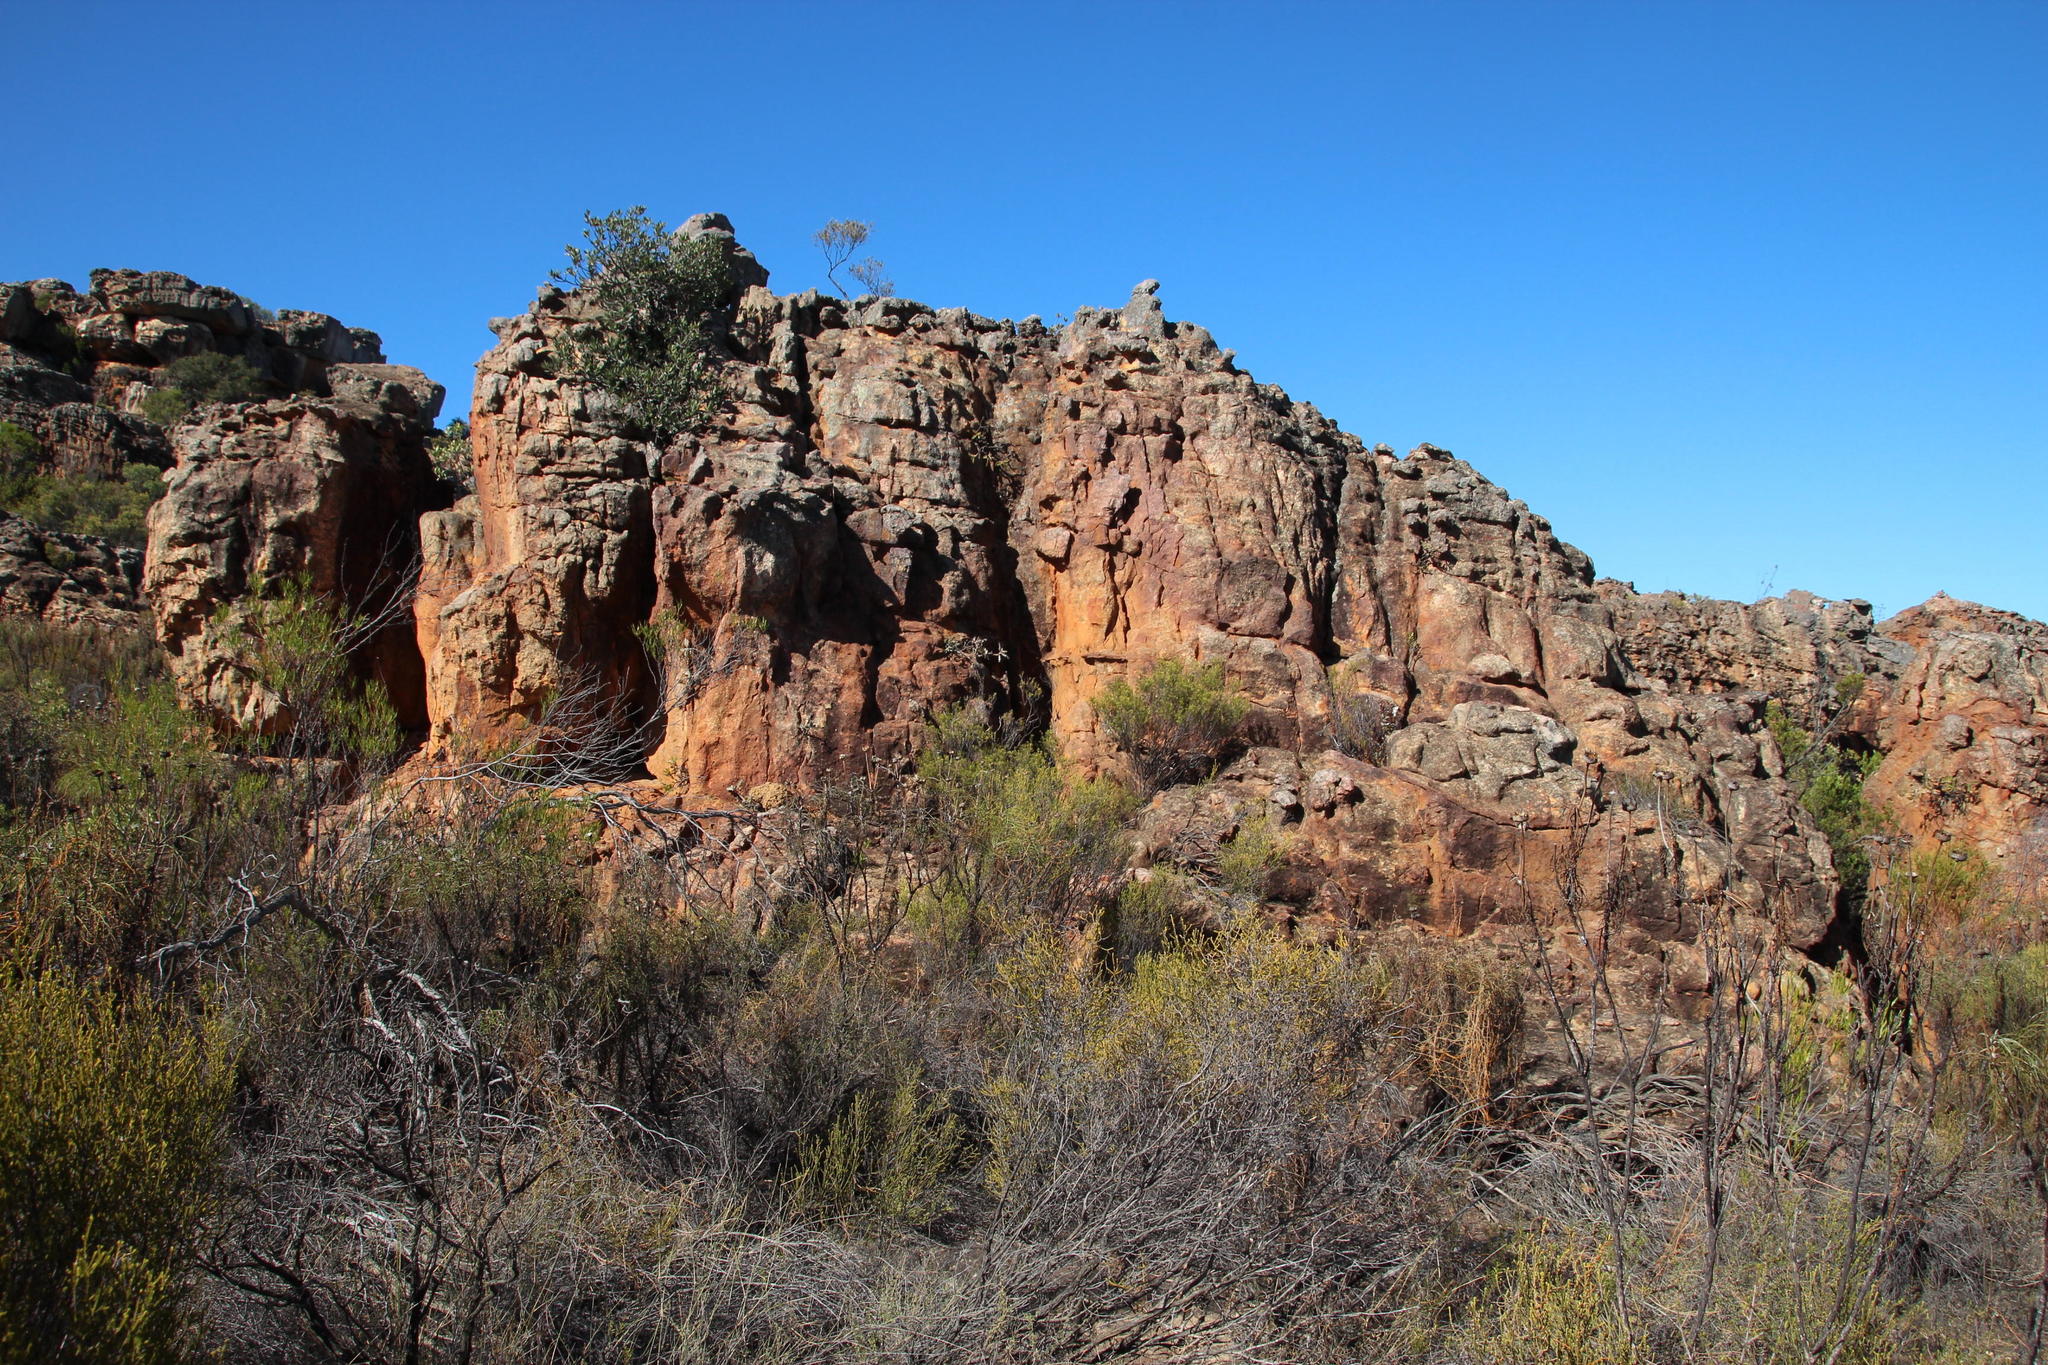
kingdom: Plantae
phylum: Tracheophyta
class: Magnoliopsida
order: Asterales
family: Asteraceae
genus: Berkheya
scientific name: Berkheya dregei
